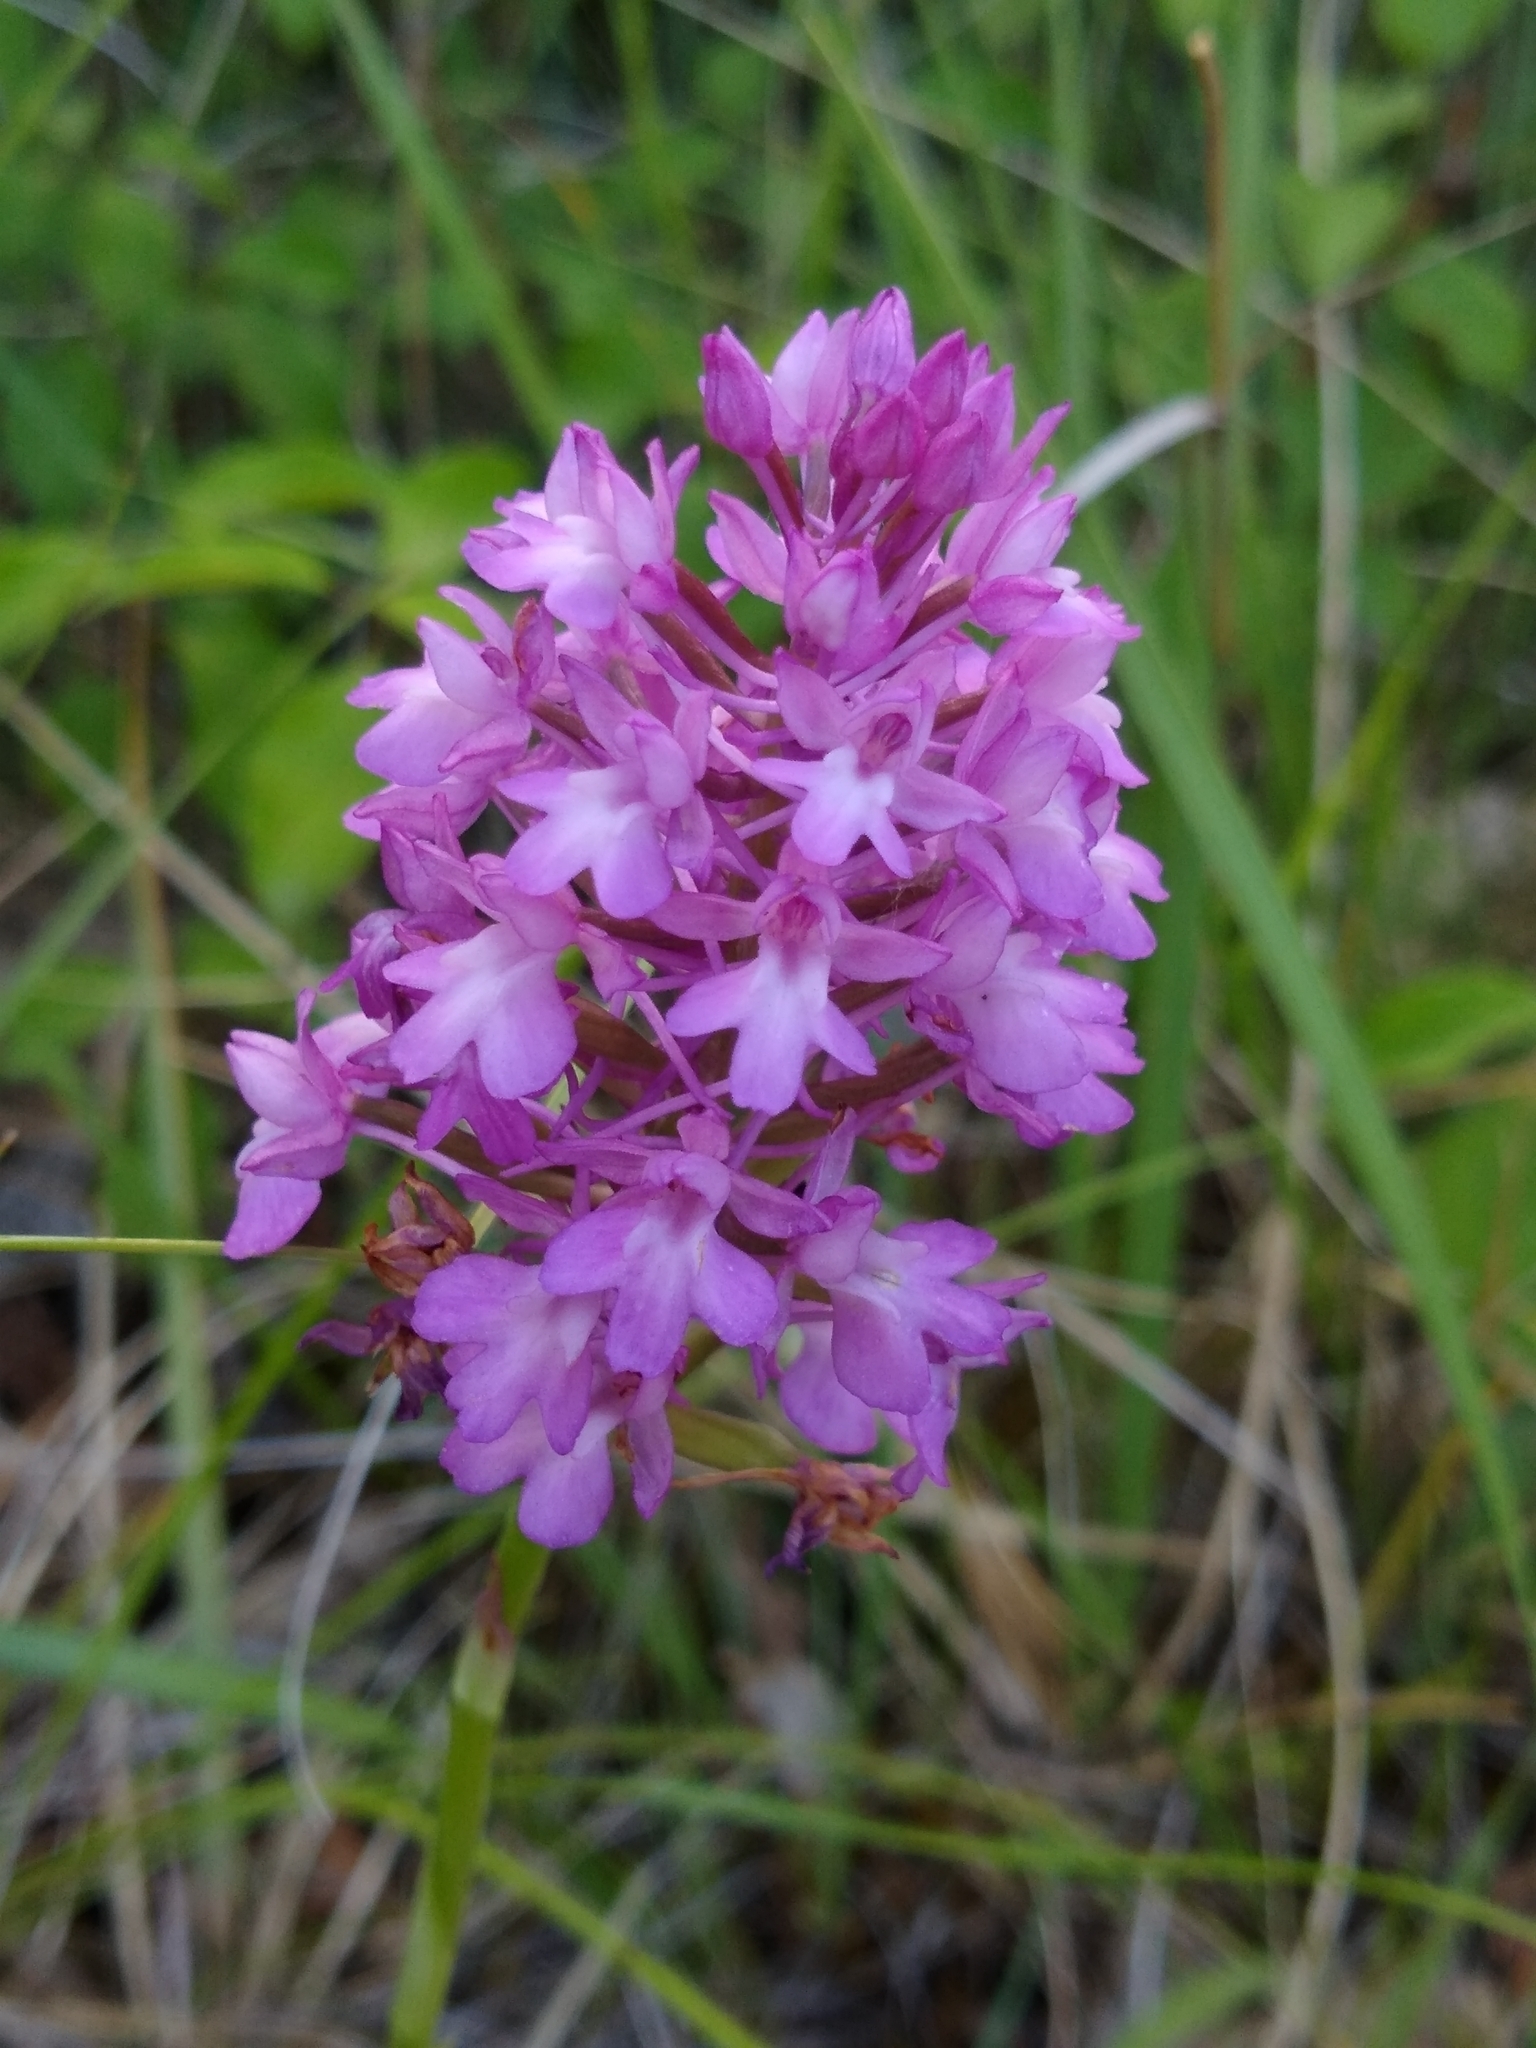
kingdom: Plantae
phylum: Tracheophyta
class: Liliopsida
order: Asparagales
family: Orchidaceae
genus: Anacamptis
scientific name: Anacamptis pyramidalis
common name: Pyramidal orchid
